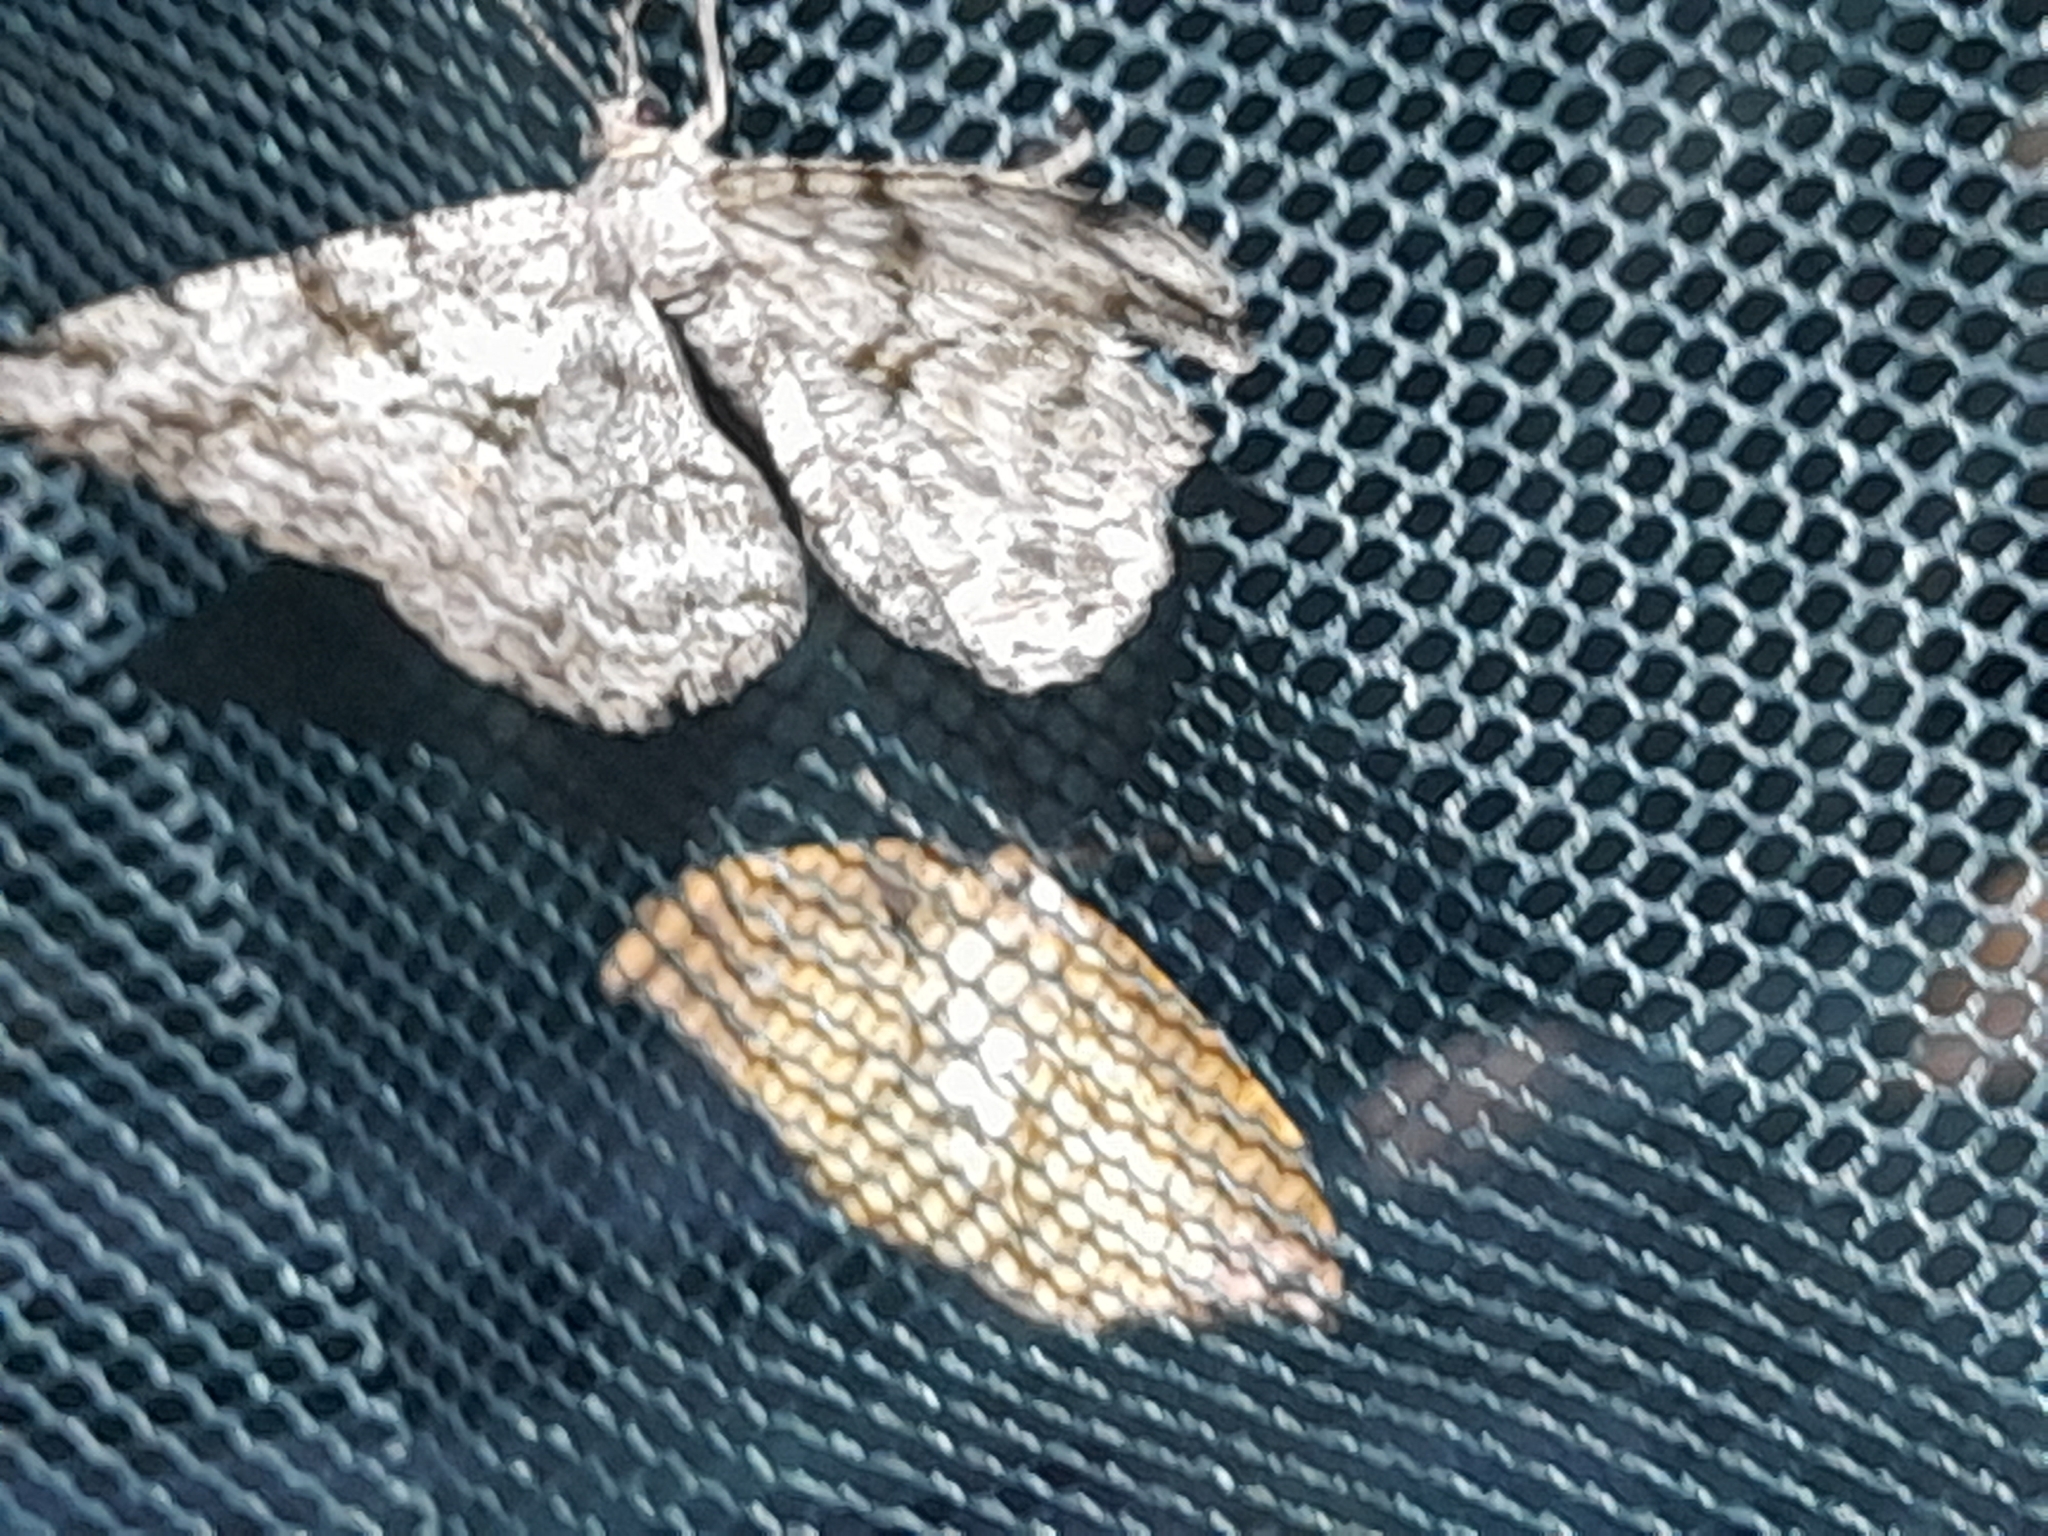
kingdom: Animalia
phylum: Arthropoda
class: Insecta
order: Lepidoptera
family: Geometridae
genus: Peribatodes
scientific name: Peribatodes rhomboidaria
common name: Willow beauty
